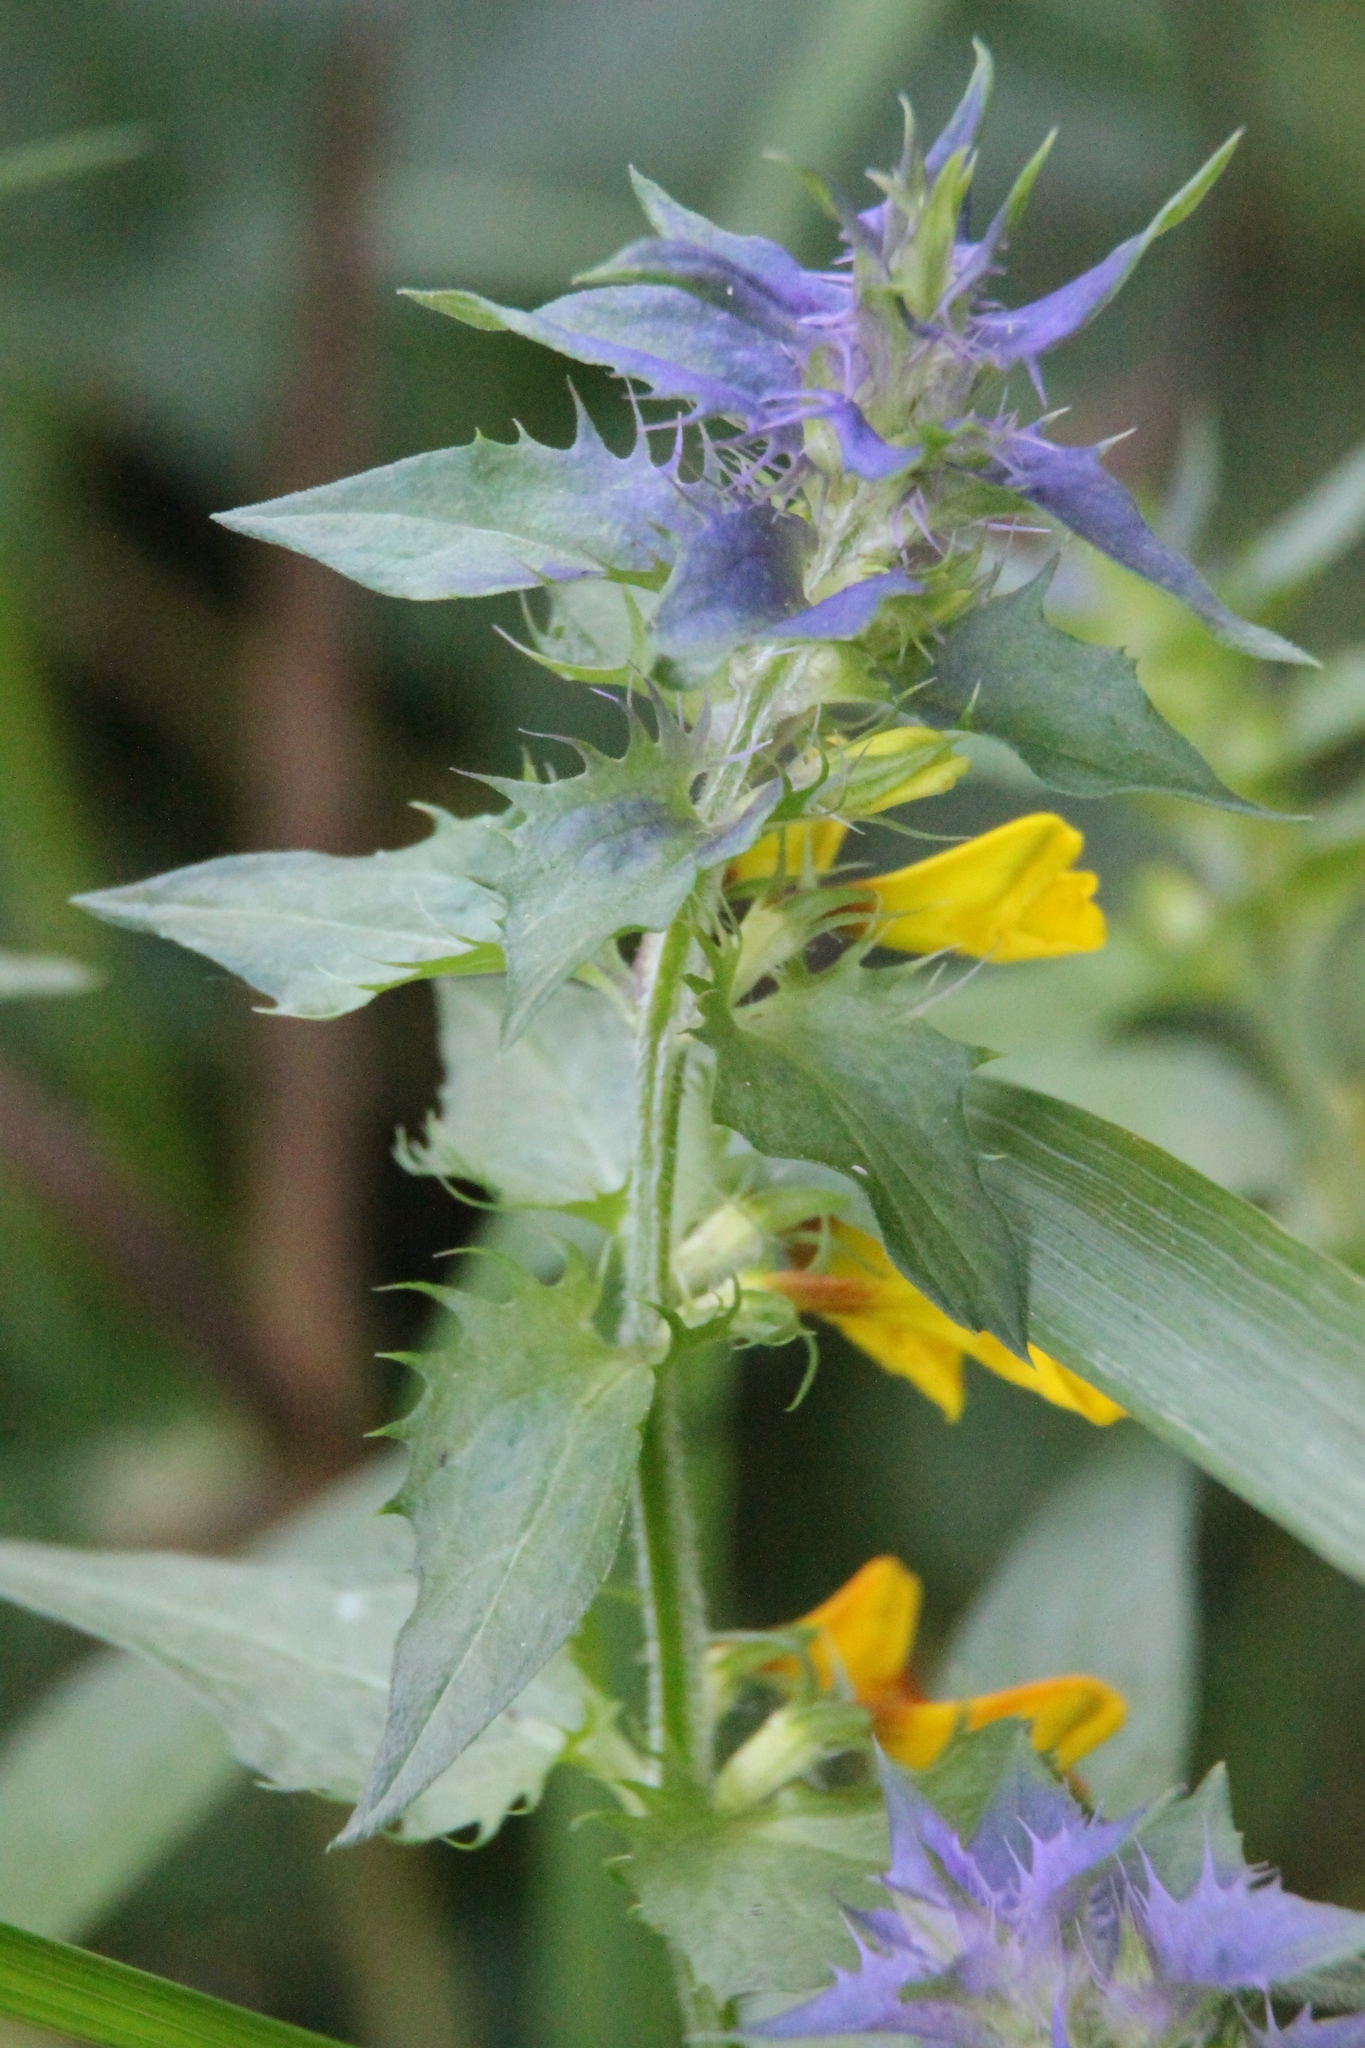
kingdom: Plantae
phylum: Tracheophyta
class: Magnoliopsida
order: Lamiales
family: Orobanchaceae
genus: Melampyrum
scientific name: Melampyrum nemorosum
